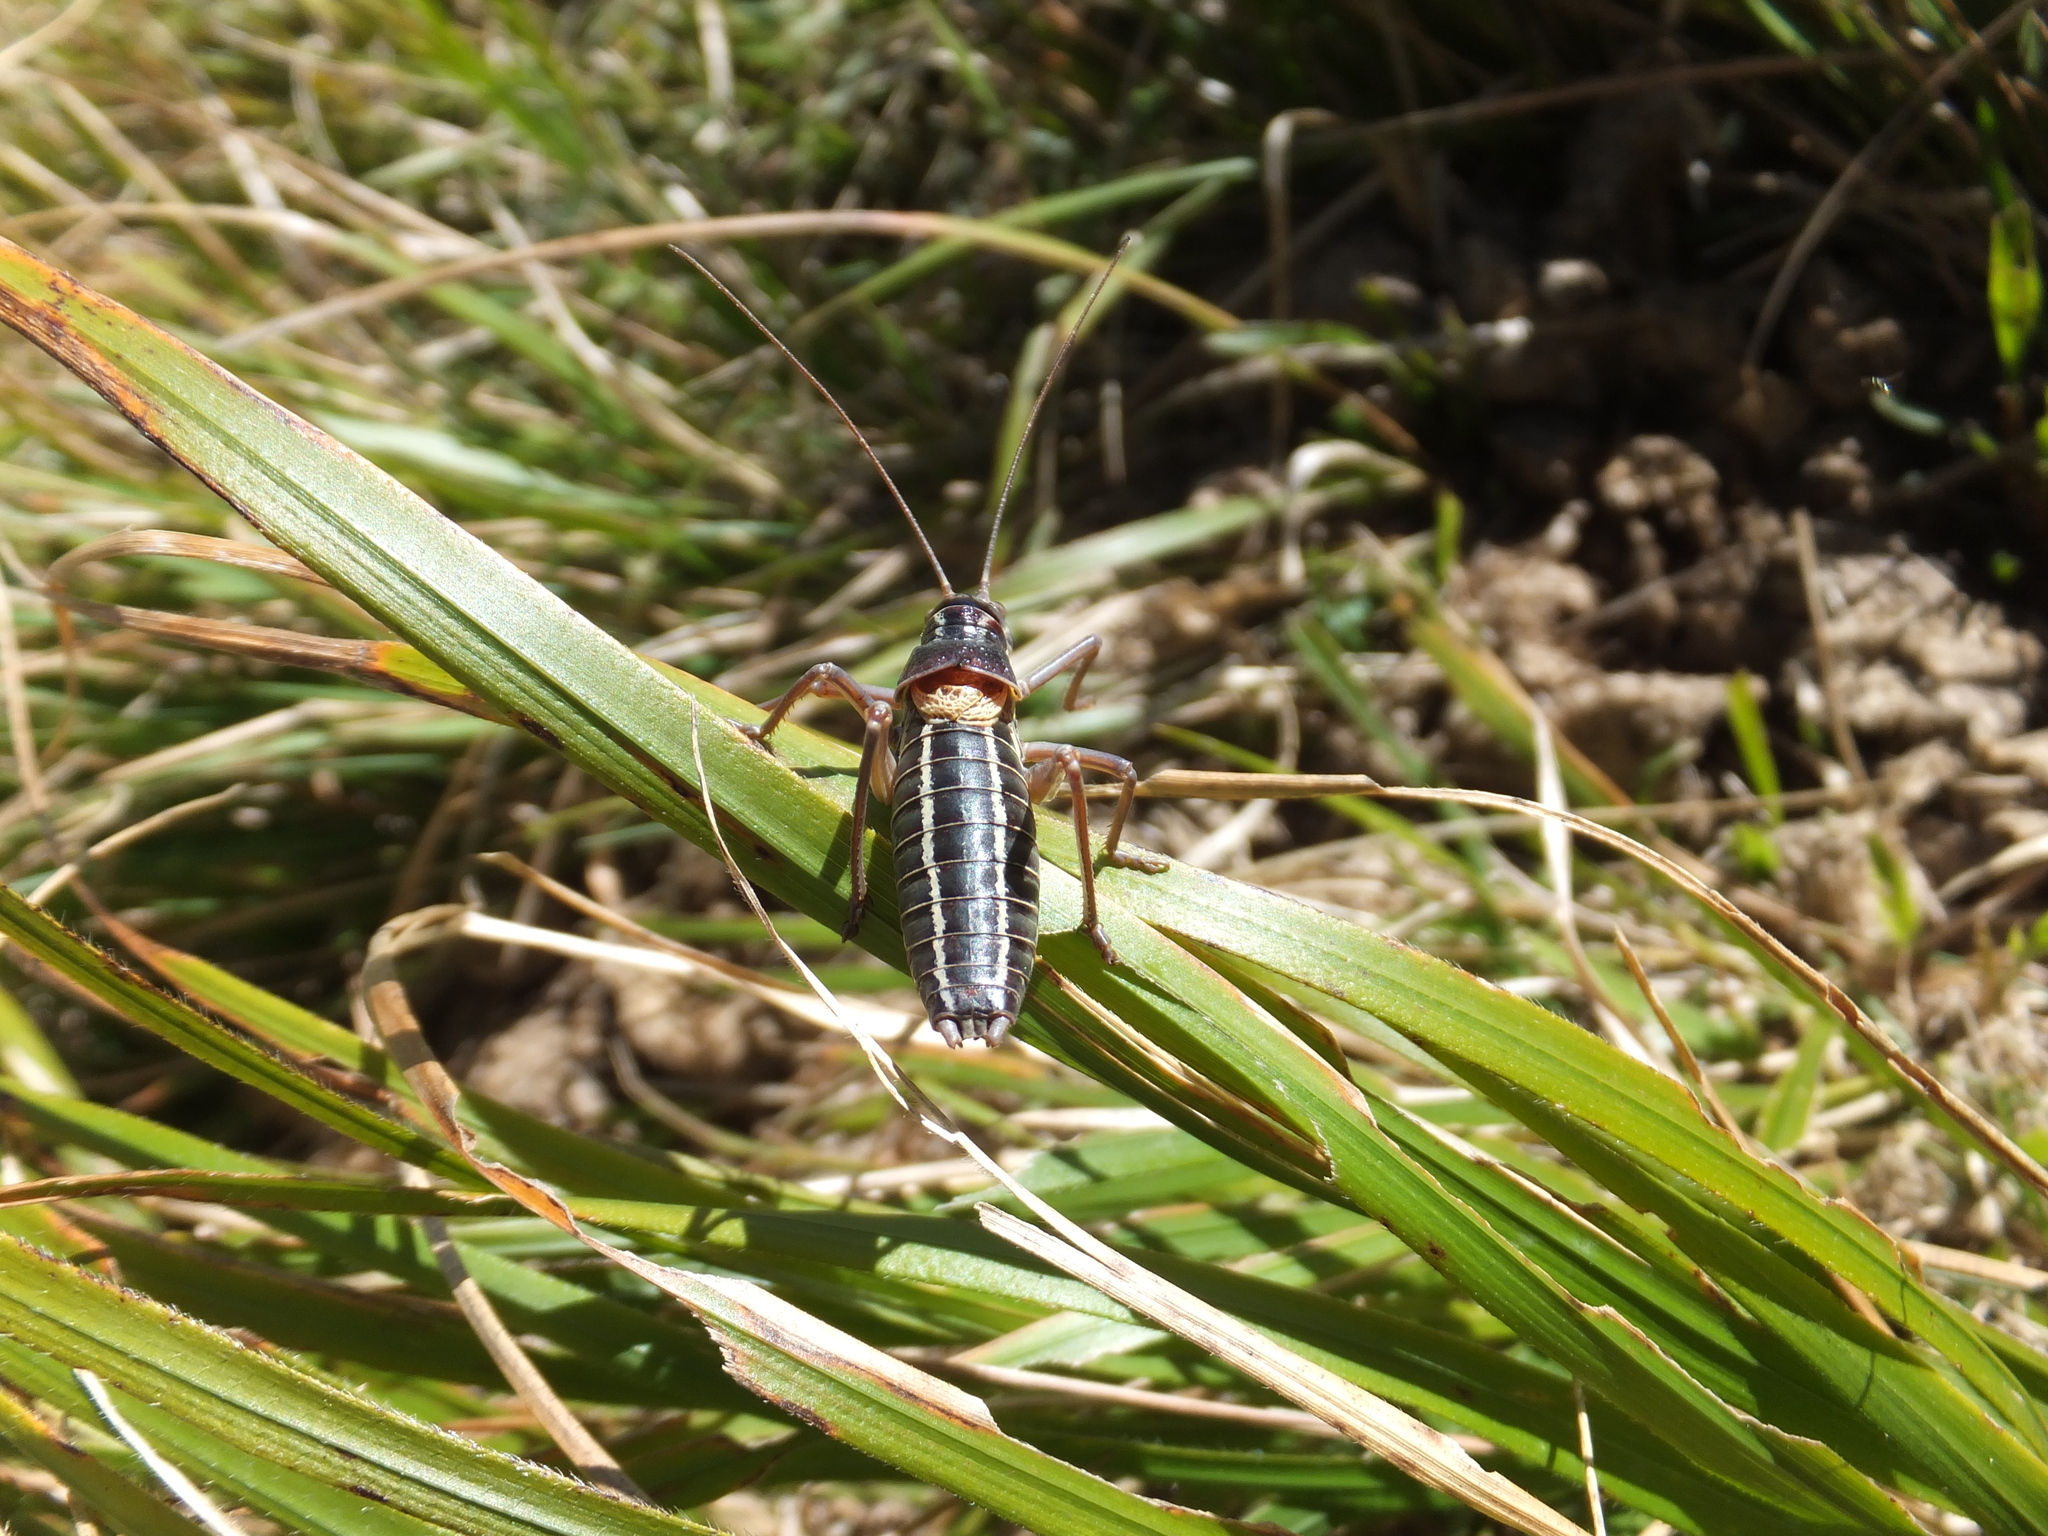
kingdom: Animalia
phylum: Arthropoda
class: Insecta
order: Orthoptera
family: Tettigoniidae
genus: Ephippiger
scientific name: Ephippiger ruffoi
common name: Pygmy saddle bush-cricket
